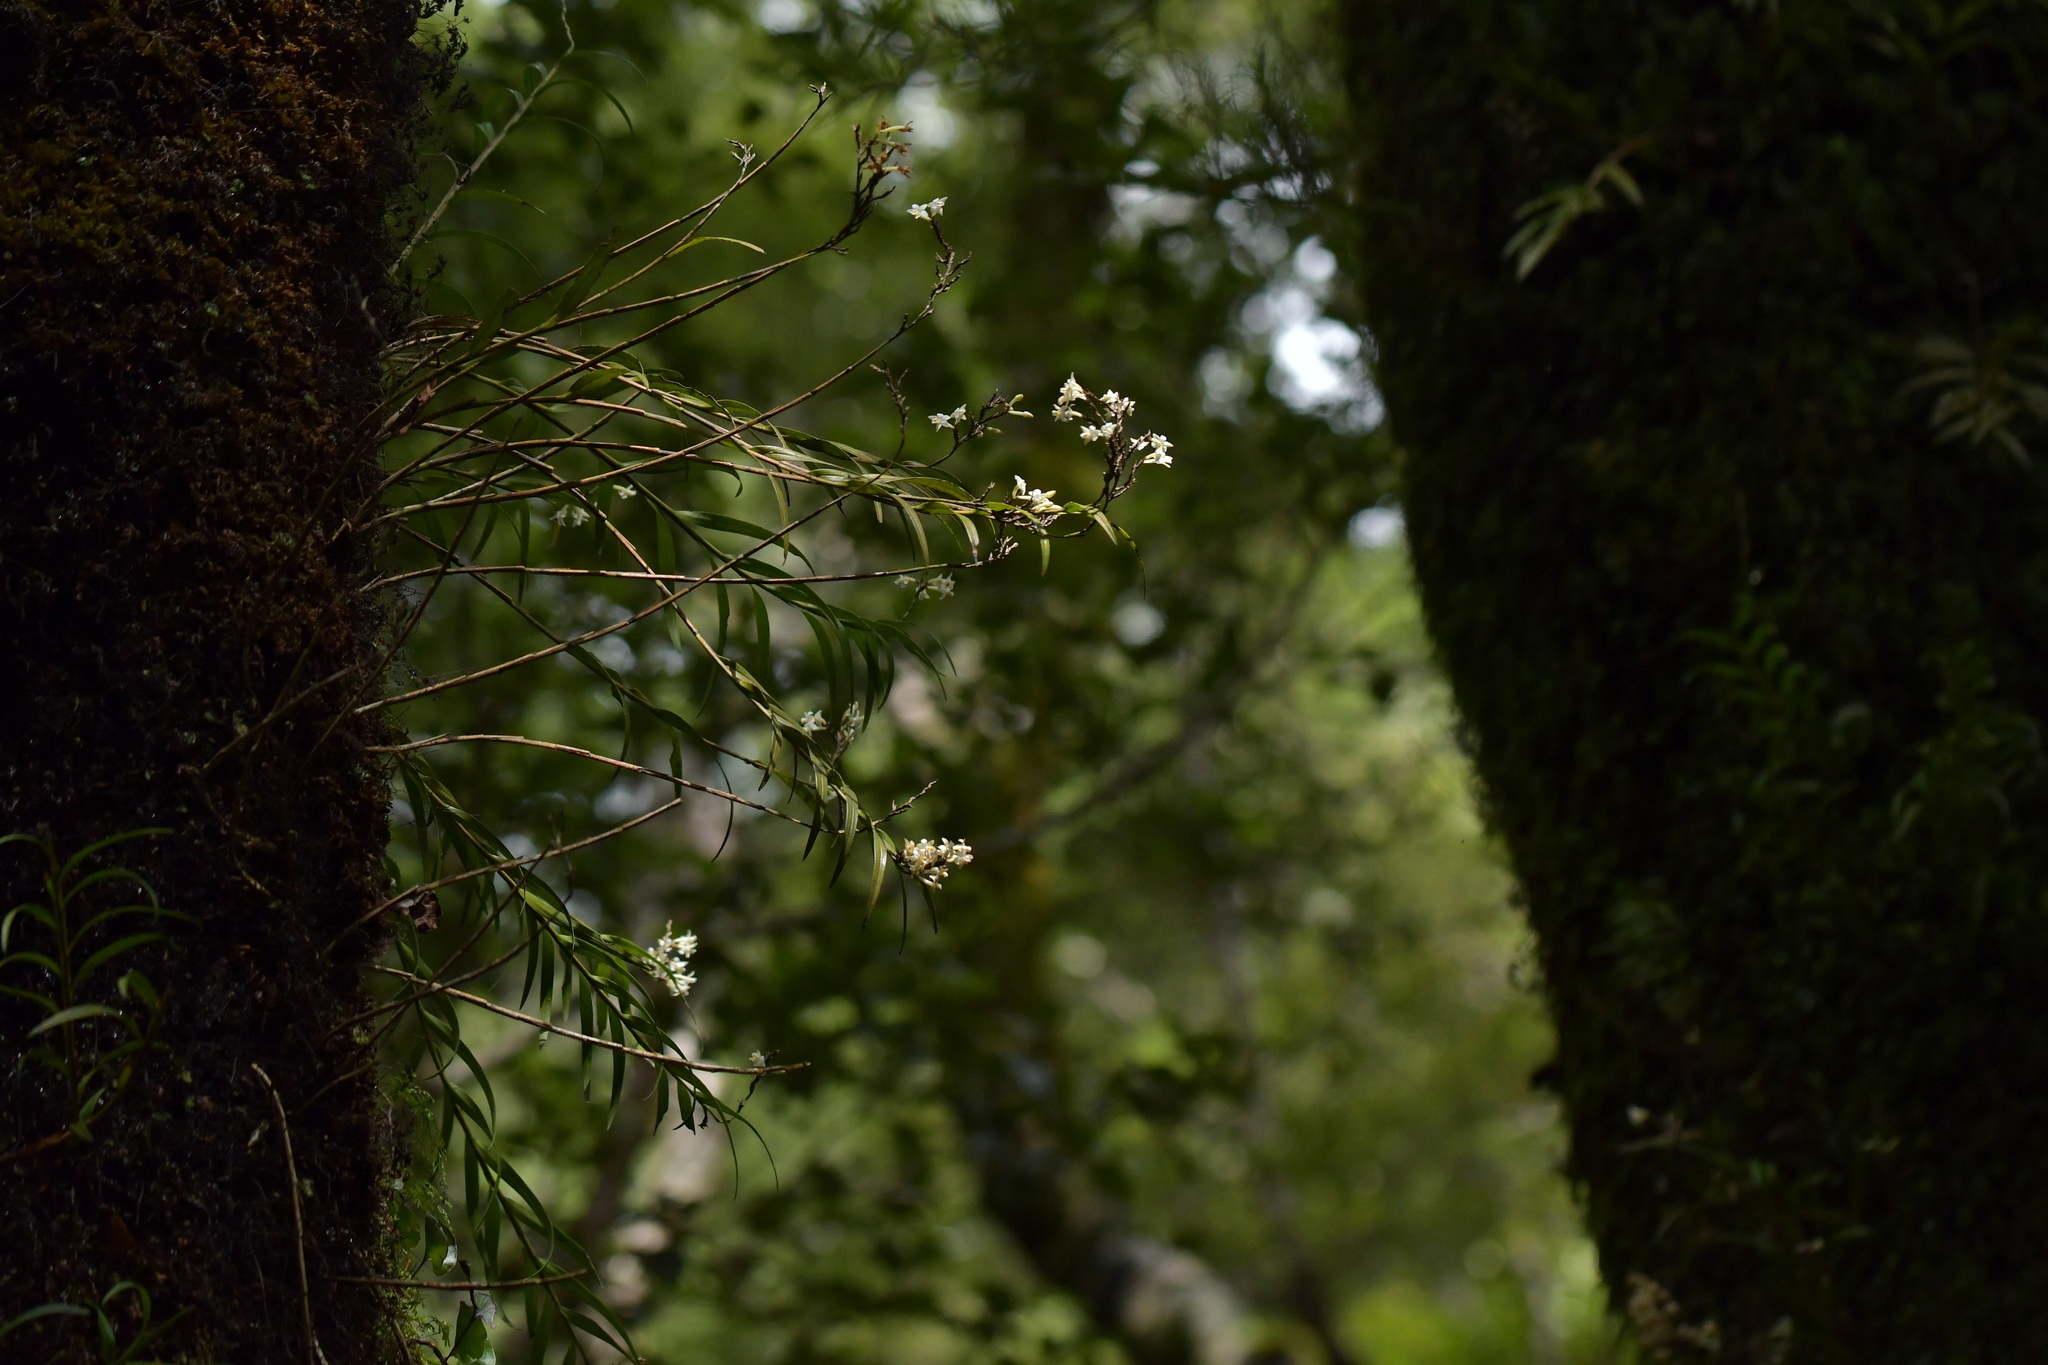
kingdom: Plantae
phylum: Tracheophyta
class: Liliopsida
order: Asparagales
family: Orchidaceae
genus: Earina
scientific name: Earina autumnalis
